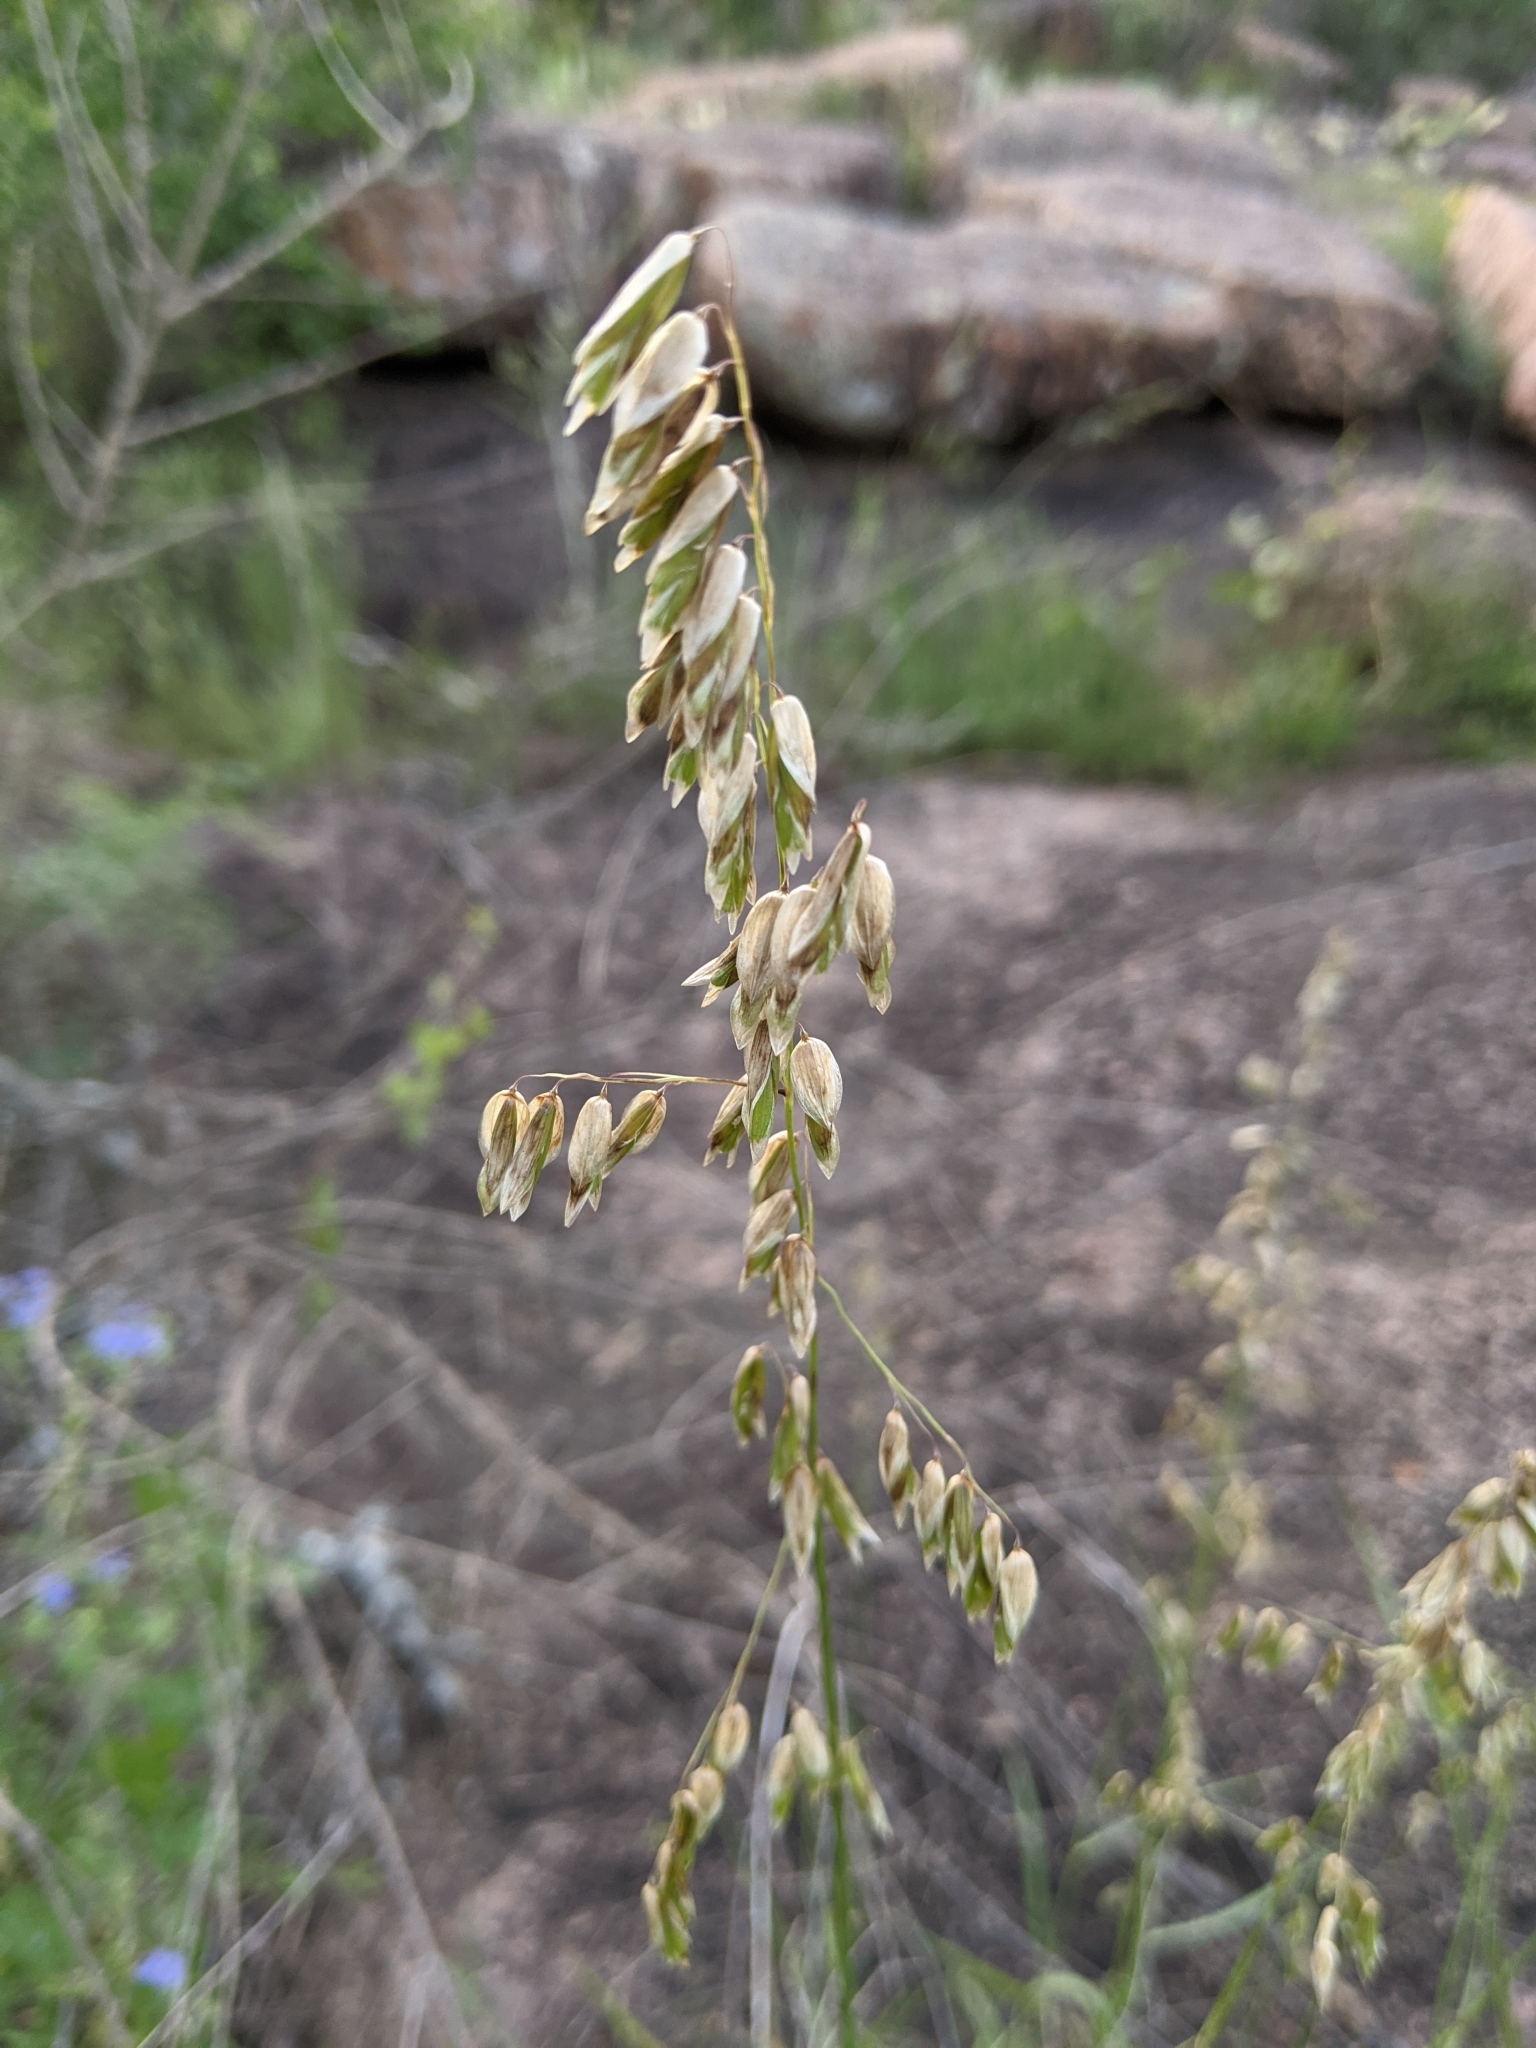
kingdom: Plantae
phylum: Tracheophyta
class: Liliopsida
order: Poales
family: Poaceae
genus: Melica
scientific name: Melica nitens
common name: Three-flower melic
